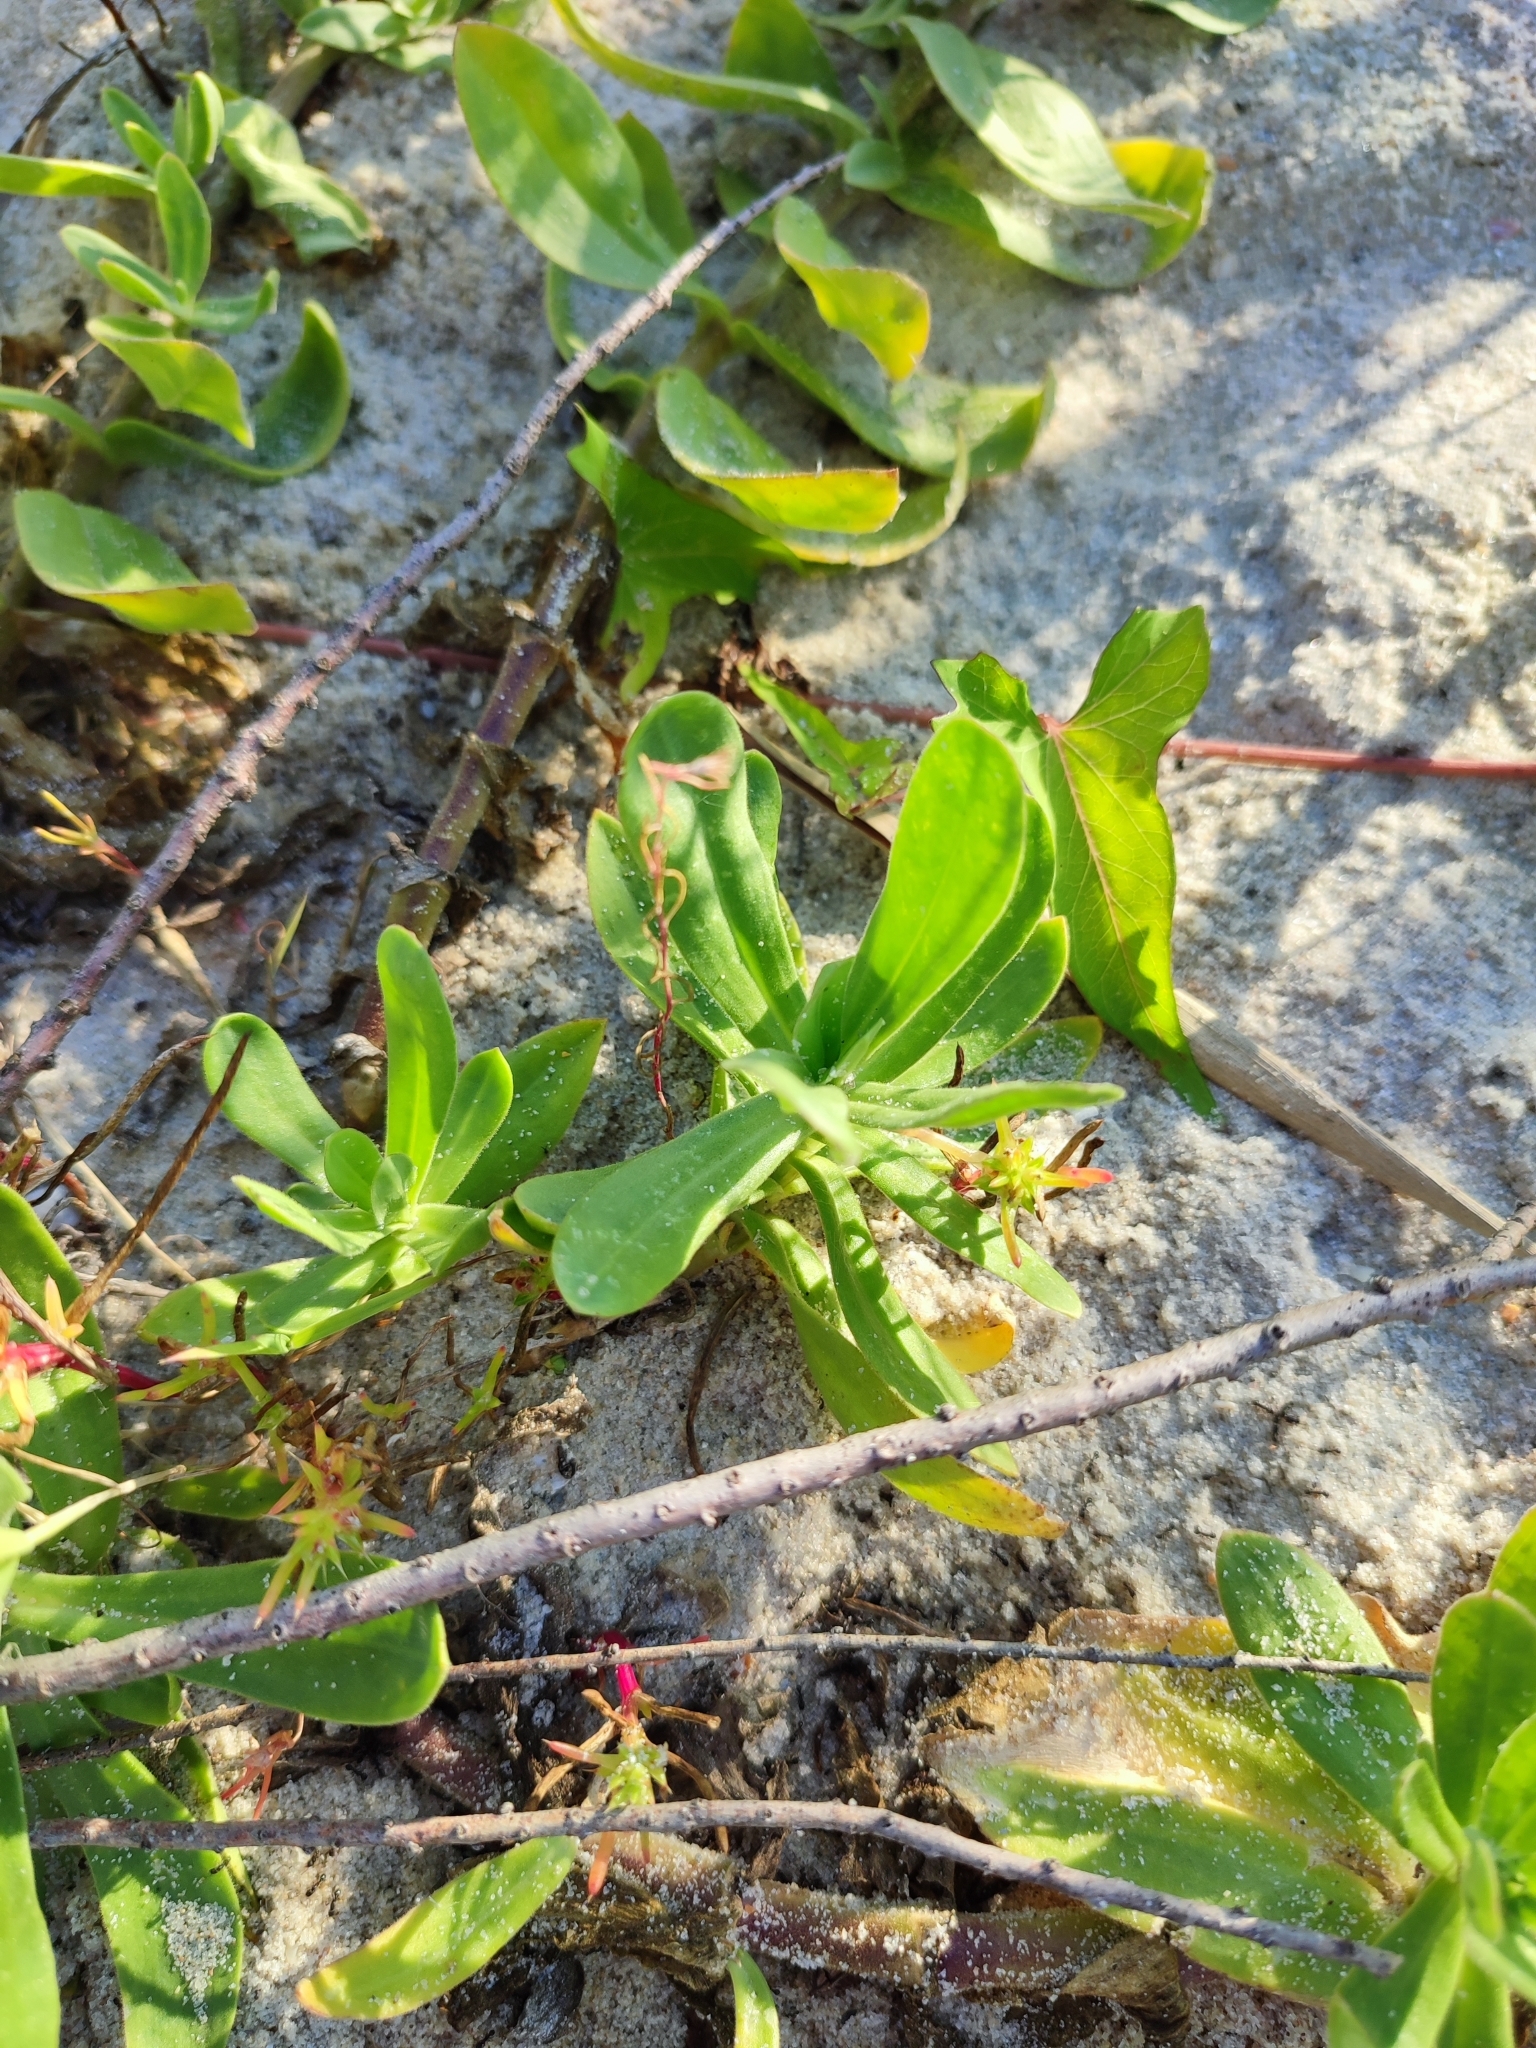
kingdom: Plantae
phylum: Tracheophyta
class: Magnoliopsida
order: Caryophyllales
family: Caryophyllaceae
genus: Gypsophila
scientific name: Gypsophila perfoliata
